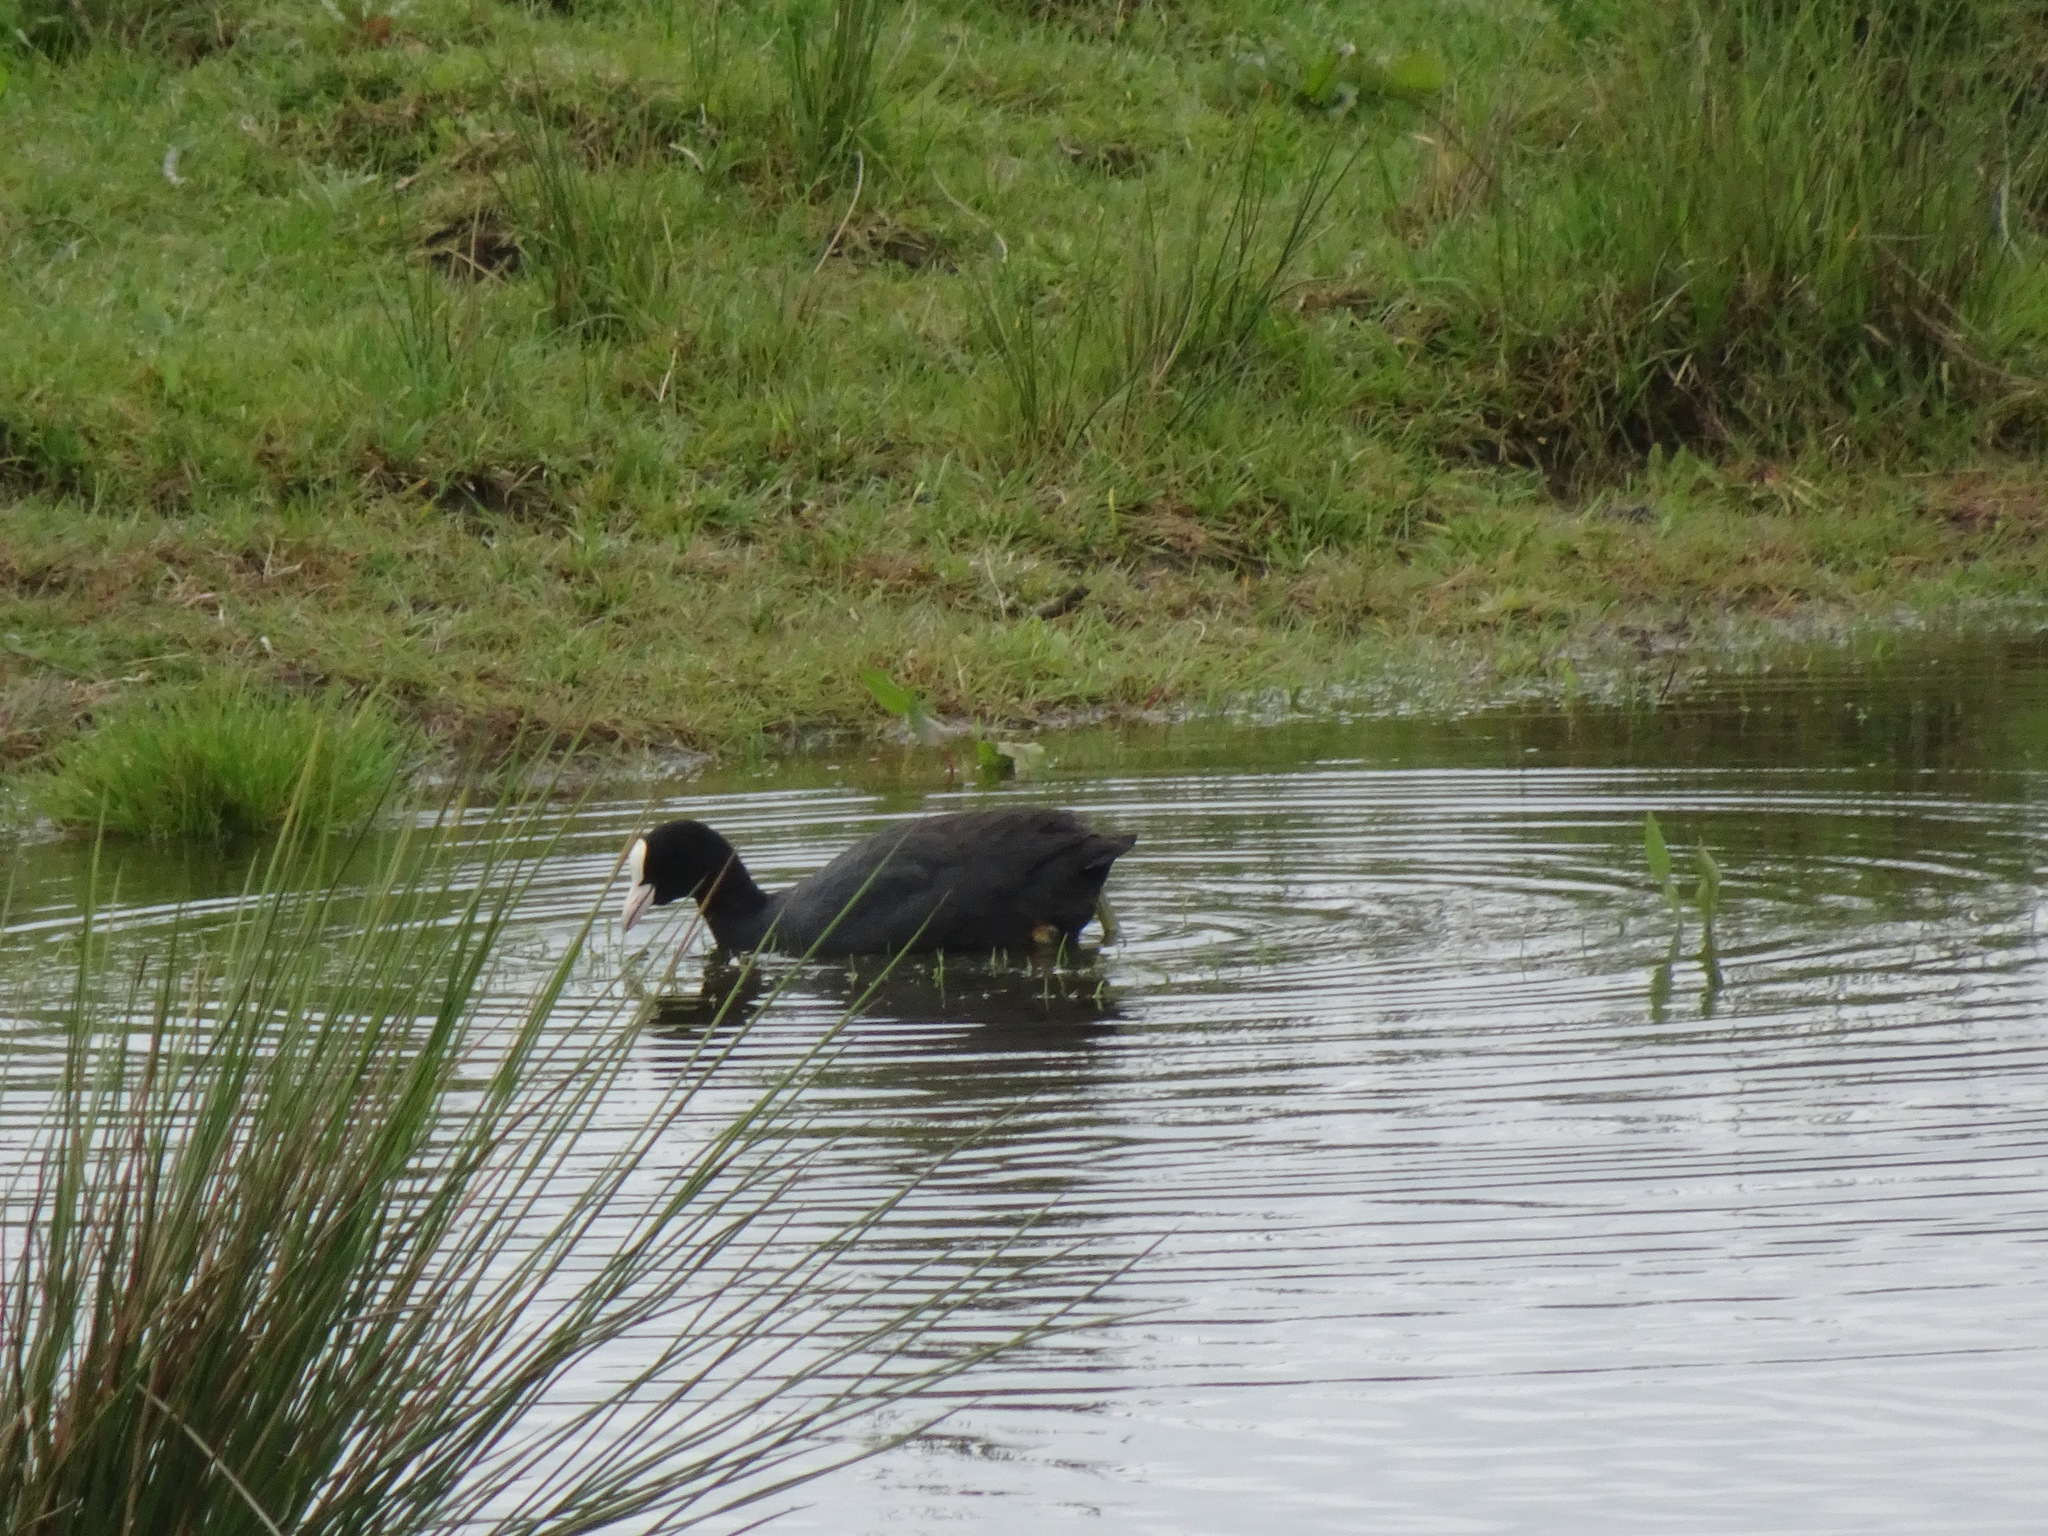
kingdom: Animalia
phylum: Chordata
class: Aves
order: Gruiformes
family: Rallidae
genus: Fulica
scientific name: Fulica atra
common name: Eurasian coot
